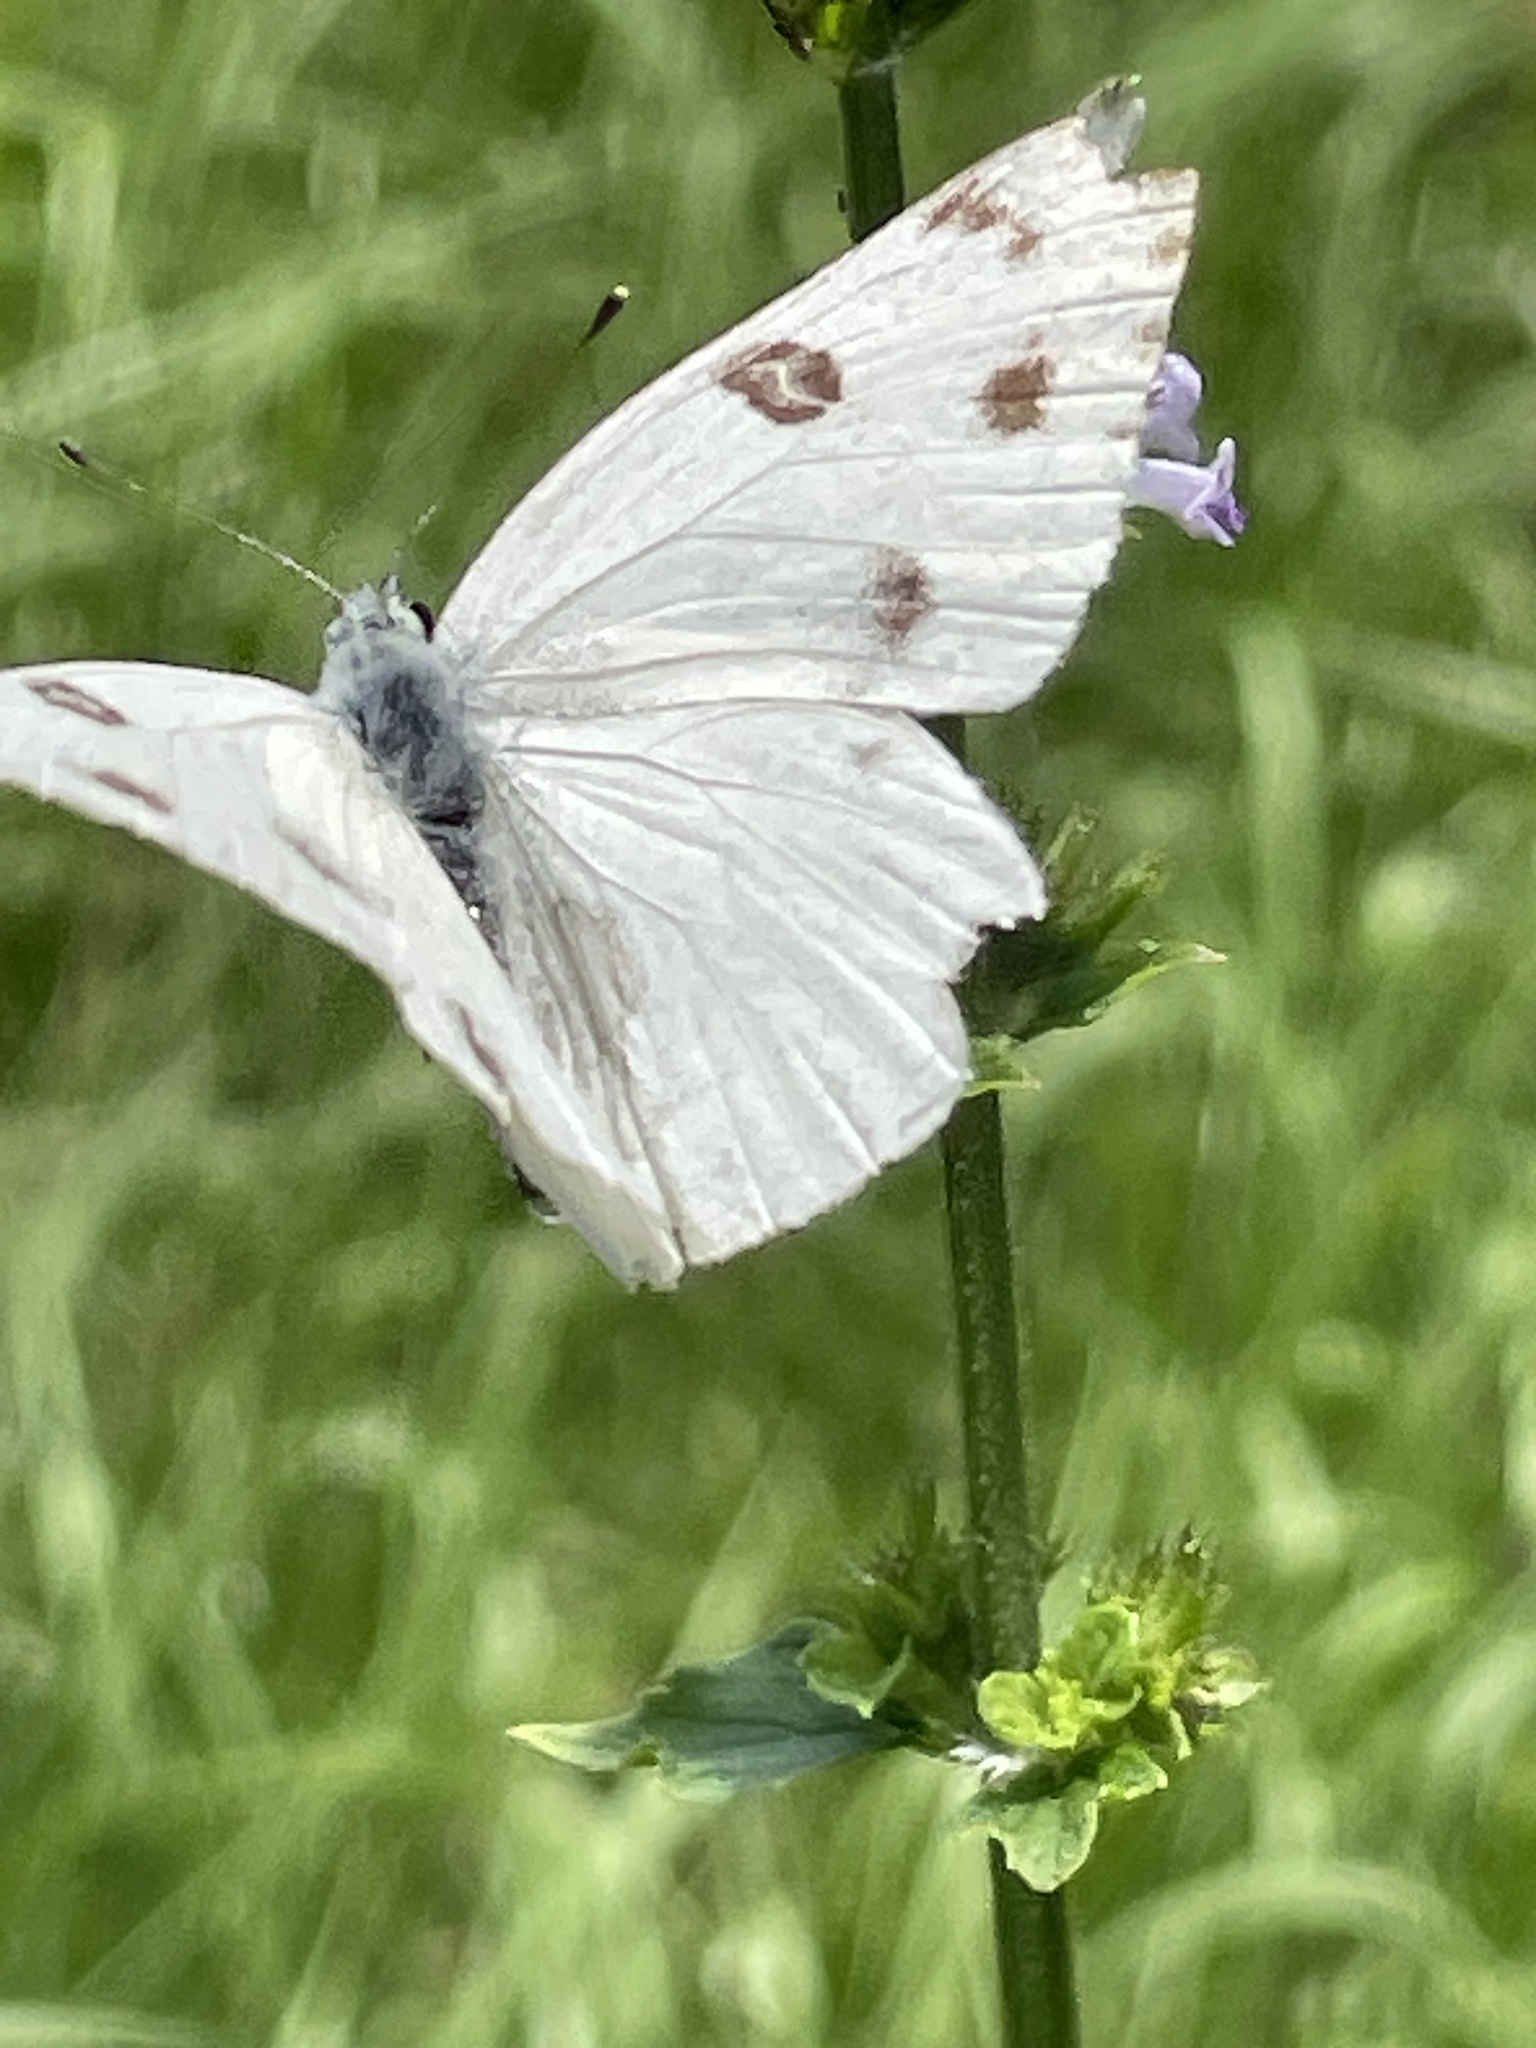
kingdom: Animalia
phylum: Arthropoda
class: Insecta
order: Lepidoptera
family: Pieridae
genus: Pontia
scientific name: Pontia protodice
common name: Checkered white
